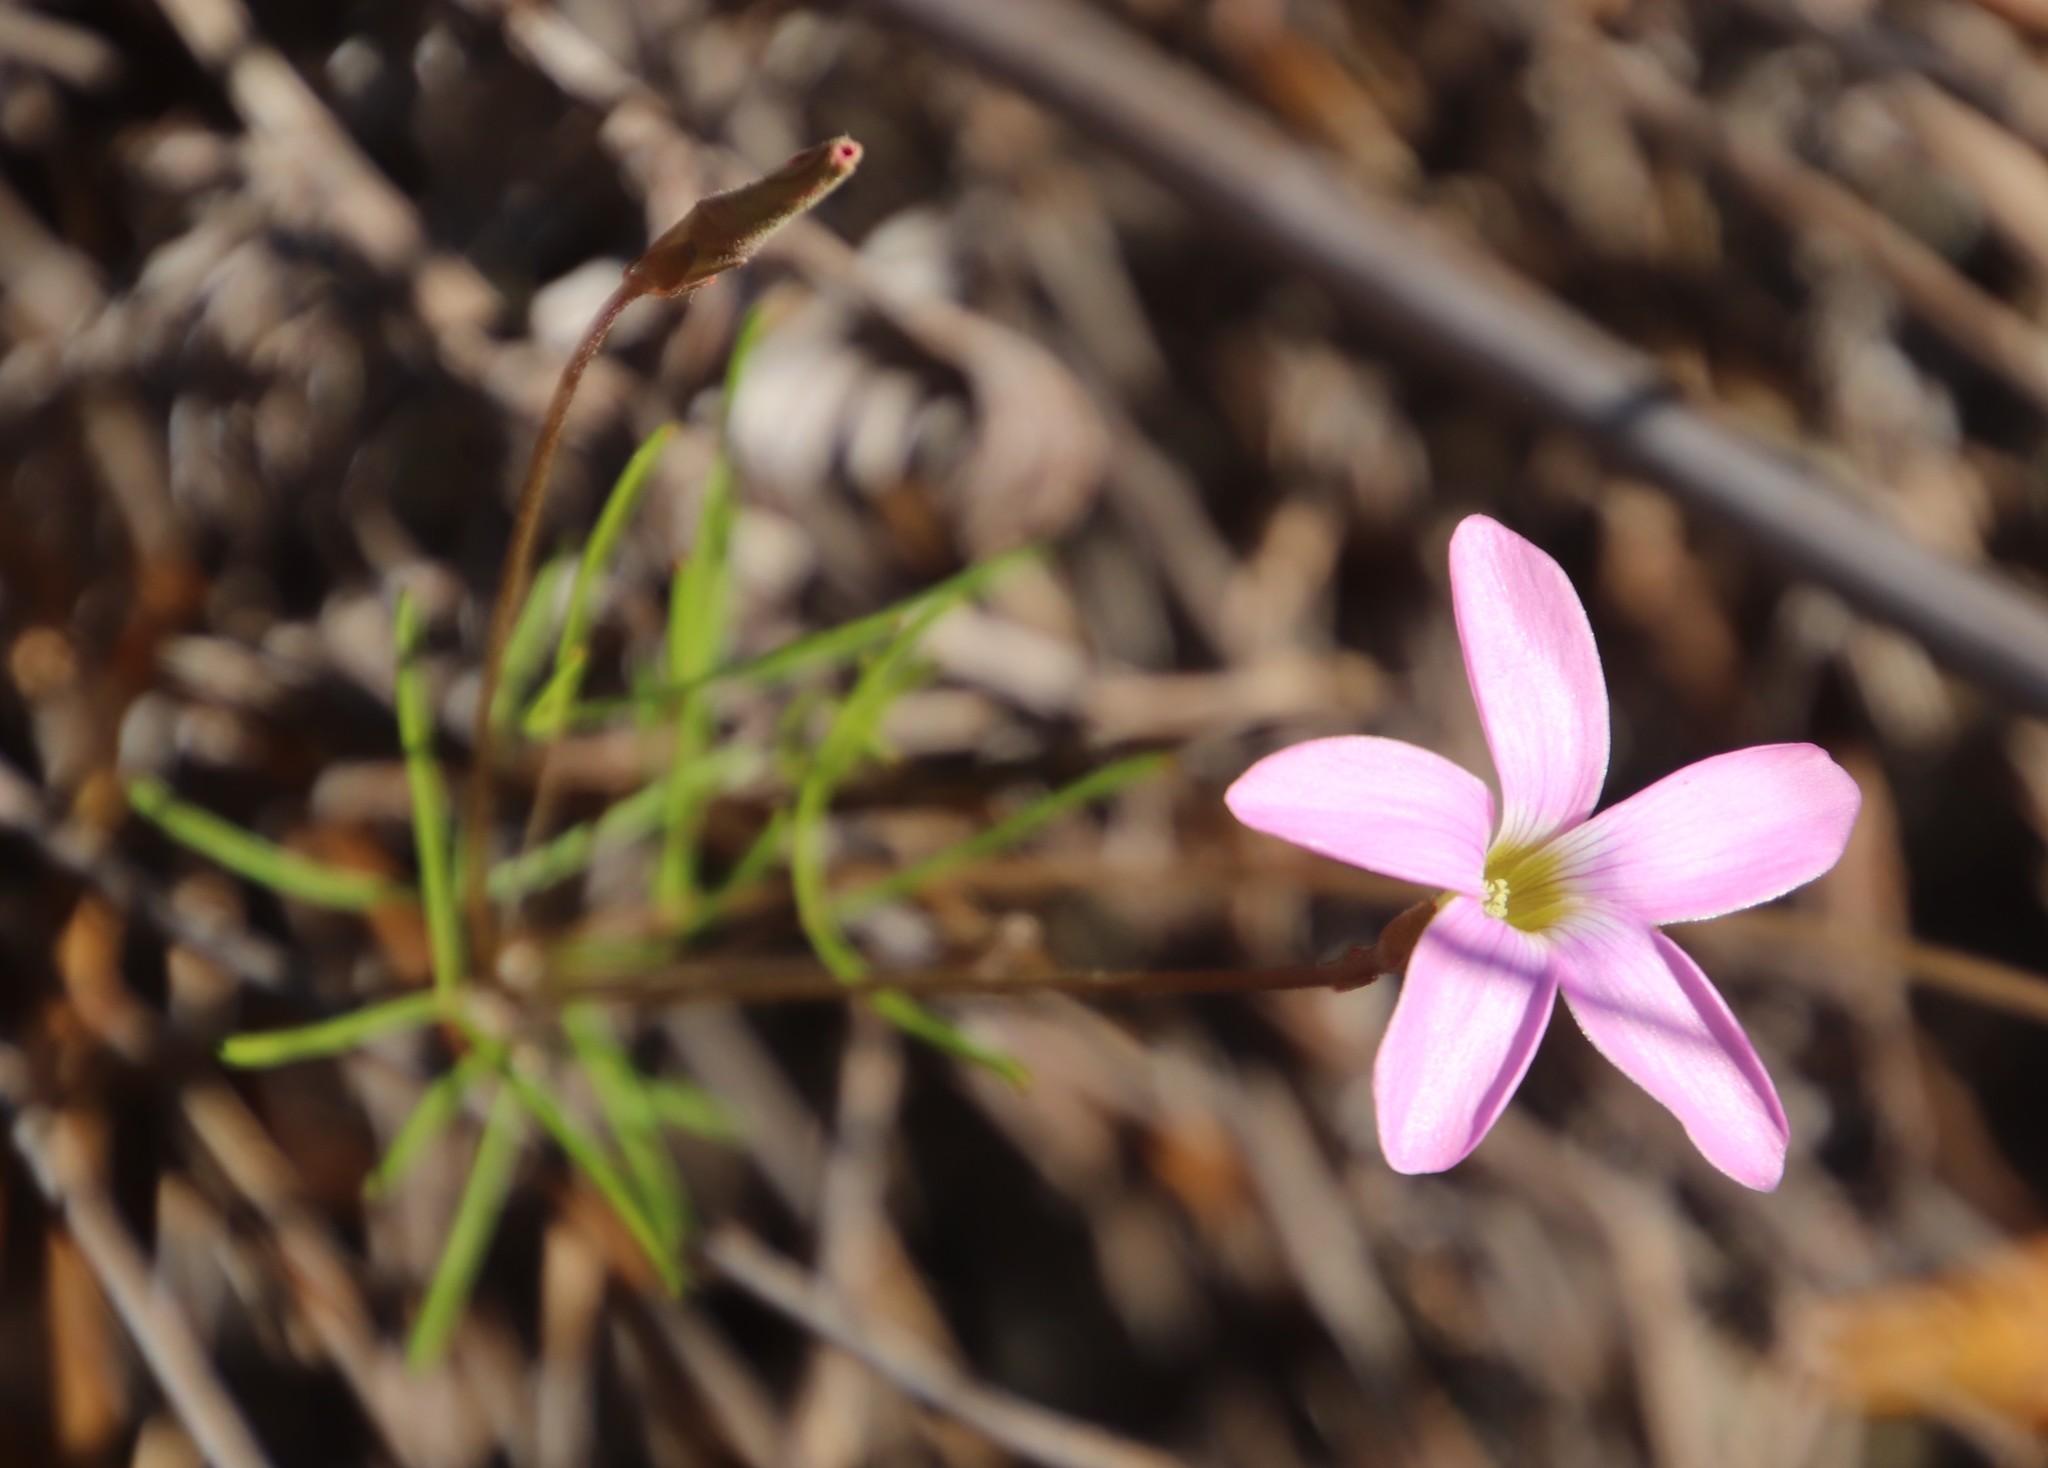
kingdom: Plantae
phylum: Tracheophyta
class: Magnoliopsida
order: Oxalidales
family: Oxalidaceae
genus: Oxalis
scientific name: Oxalis polyphylla
